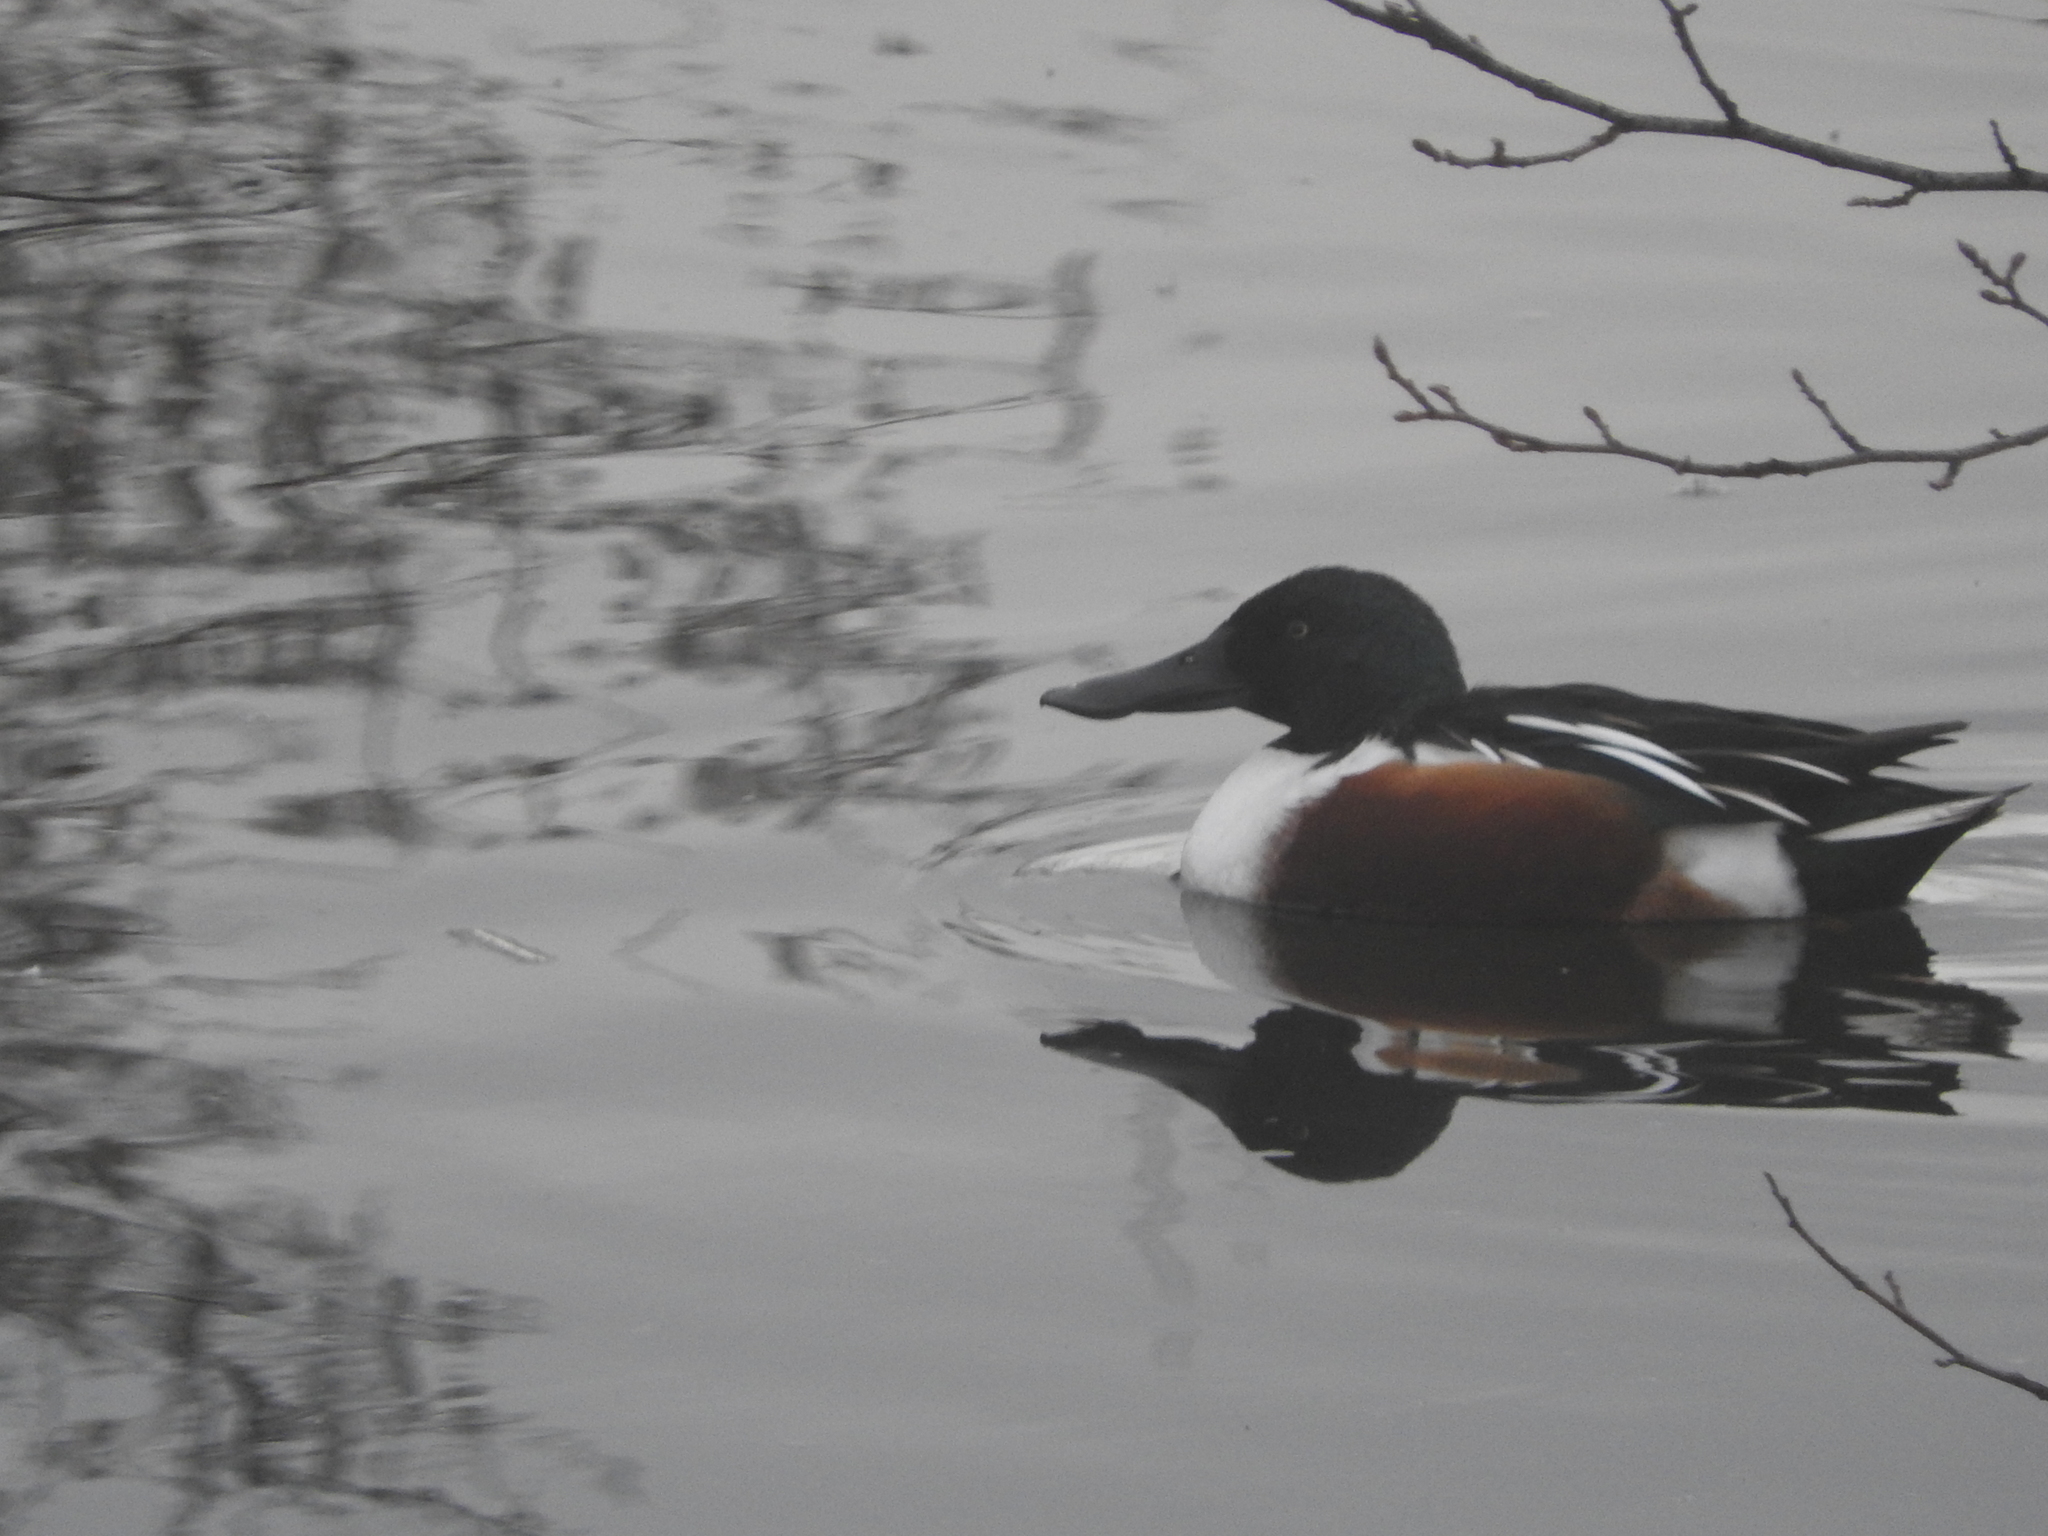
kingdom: Animalia
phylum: Chordata
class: Aves
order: Anseriformes
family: Anatidae
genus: Spatula
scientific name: Spatula clypeata
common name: Northern shoveler
